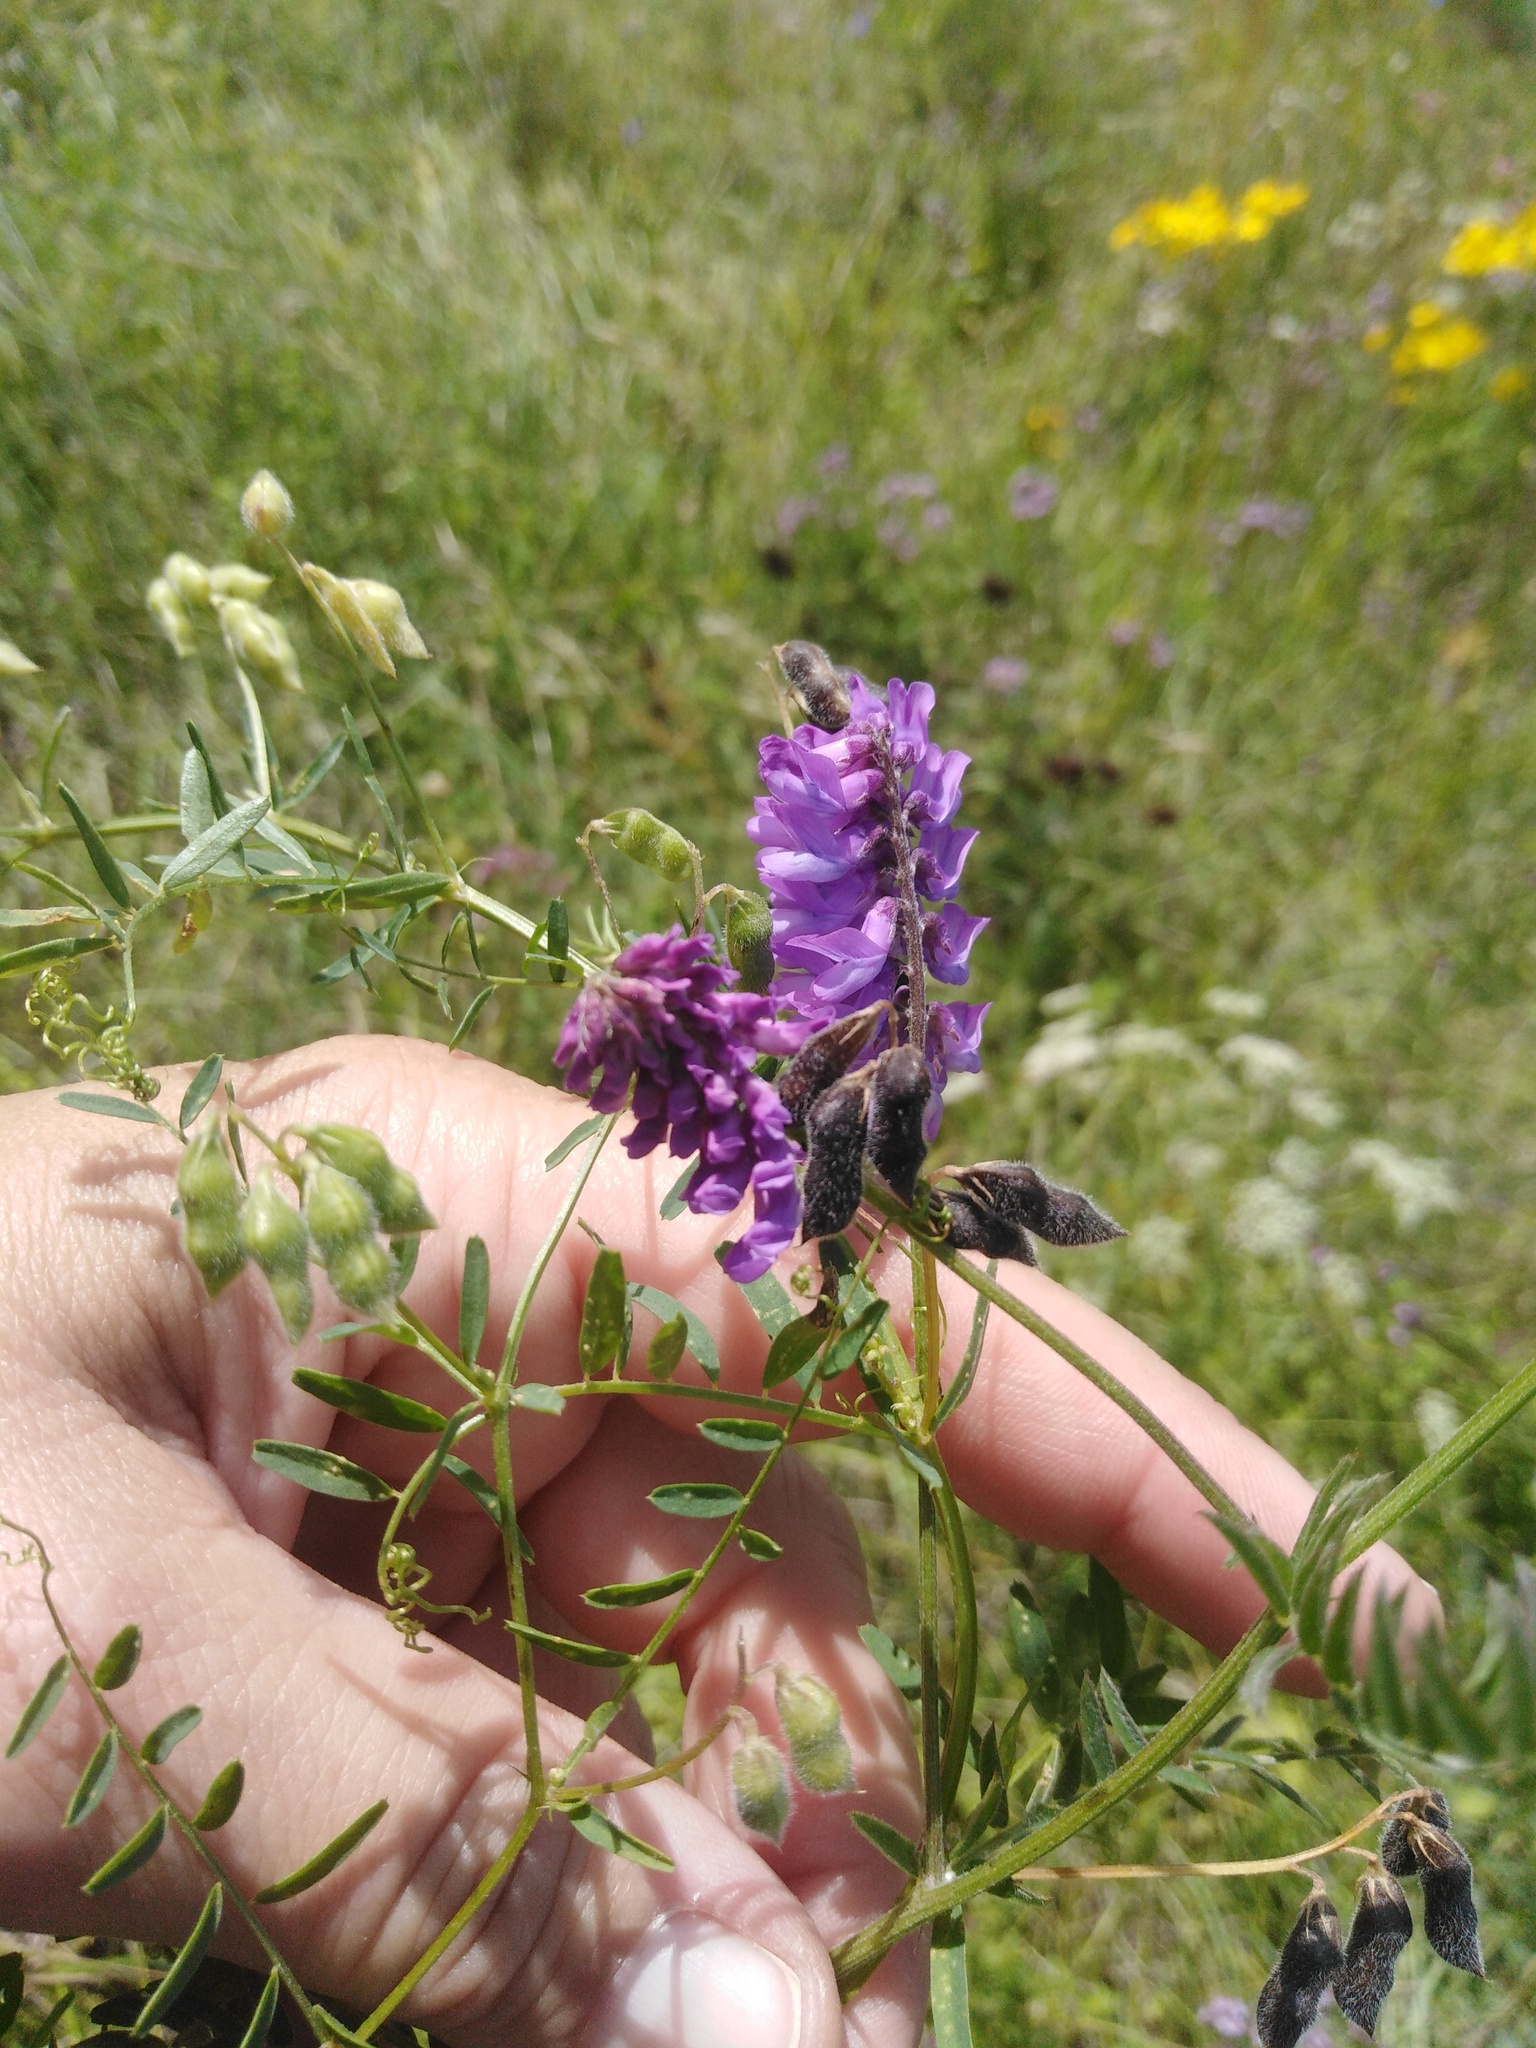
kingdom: Plantae
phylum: Tracheophyta
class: Magnoliopsida
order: Fabales
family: Fabaceae
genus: Vicia
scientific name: Vicia cracca
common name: Bird vetch
